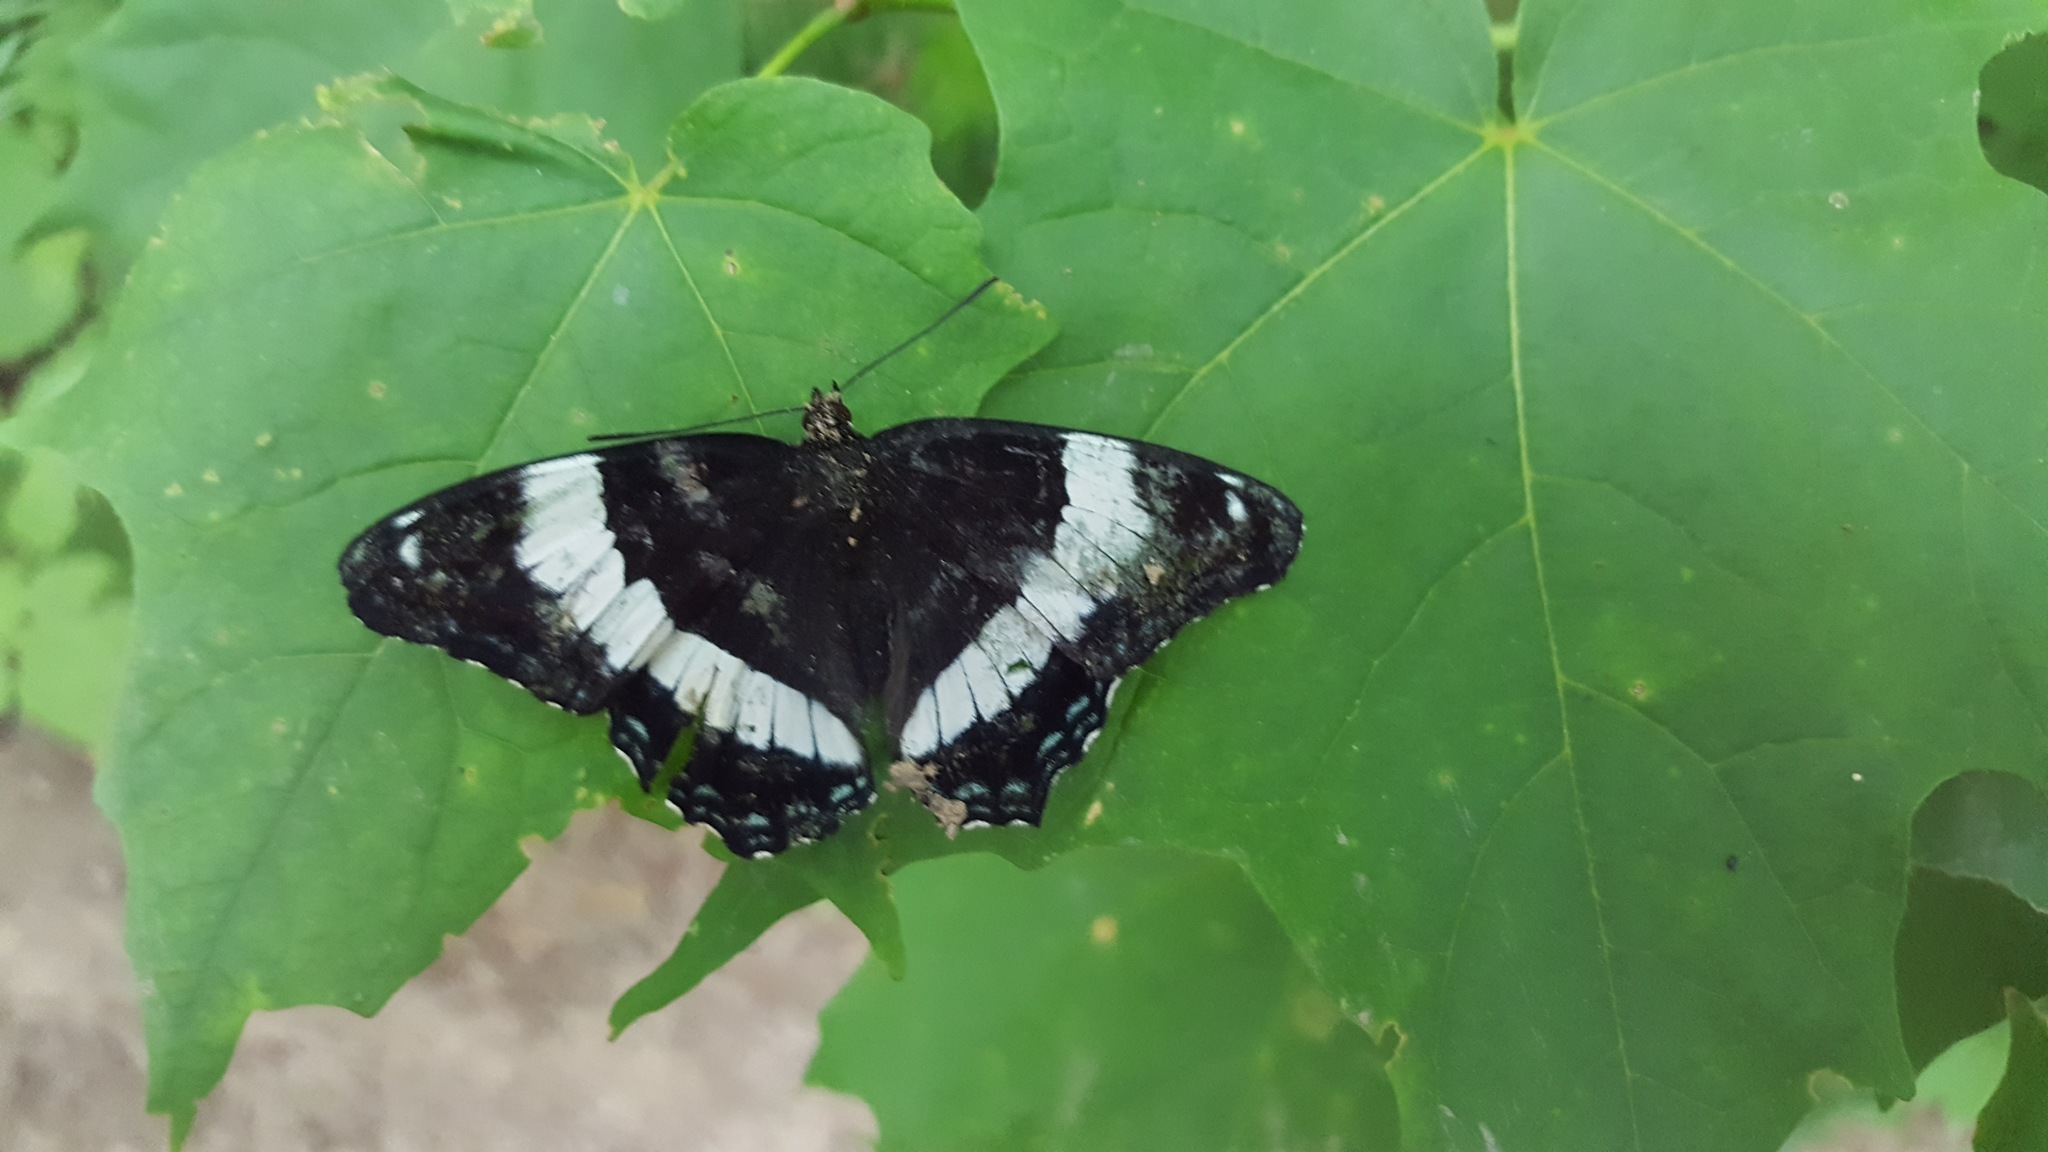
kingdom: Animalia
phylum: Arthropoda
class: Insecta
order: Lepidoptera
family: Nymphalidae
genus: Limenitis
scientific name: Limenitis arthemis
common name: Red-spotted admiral
